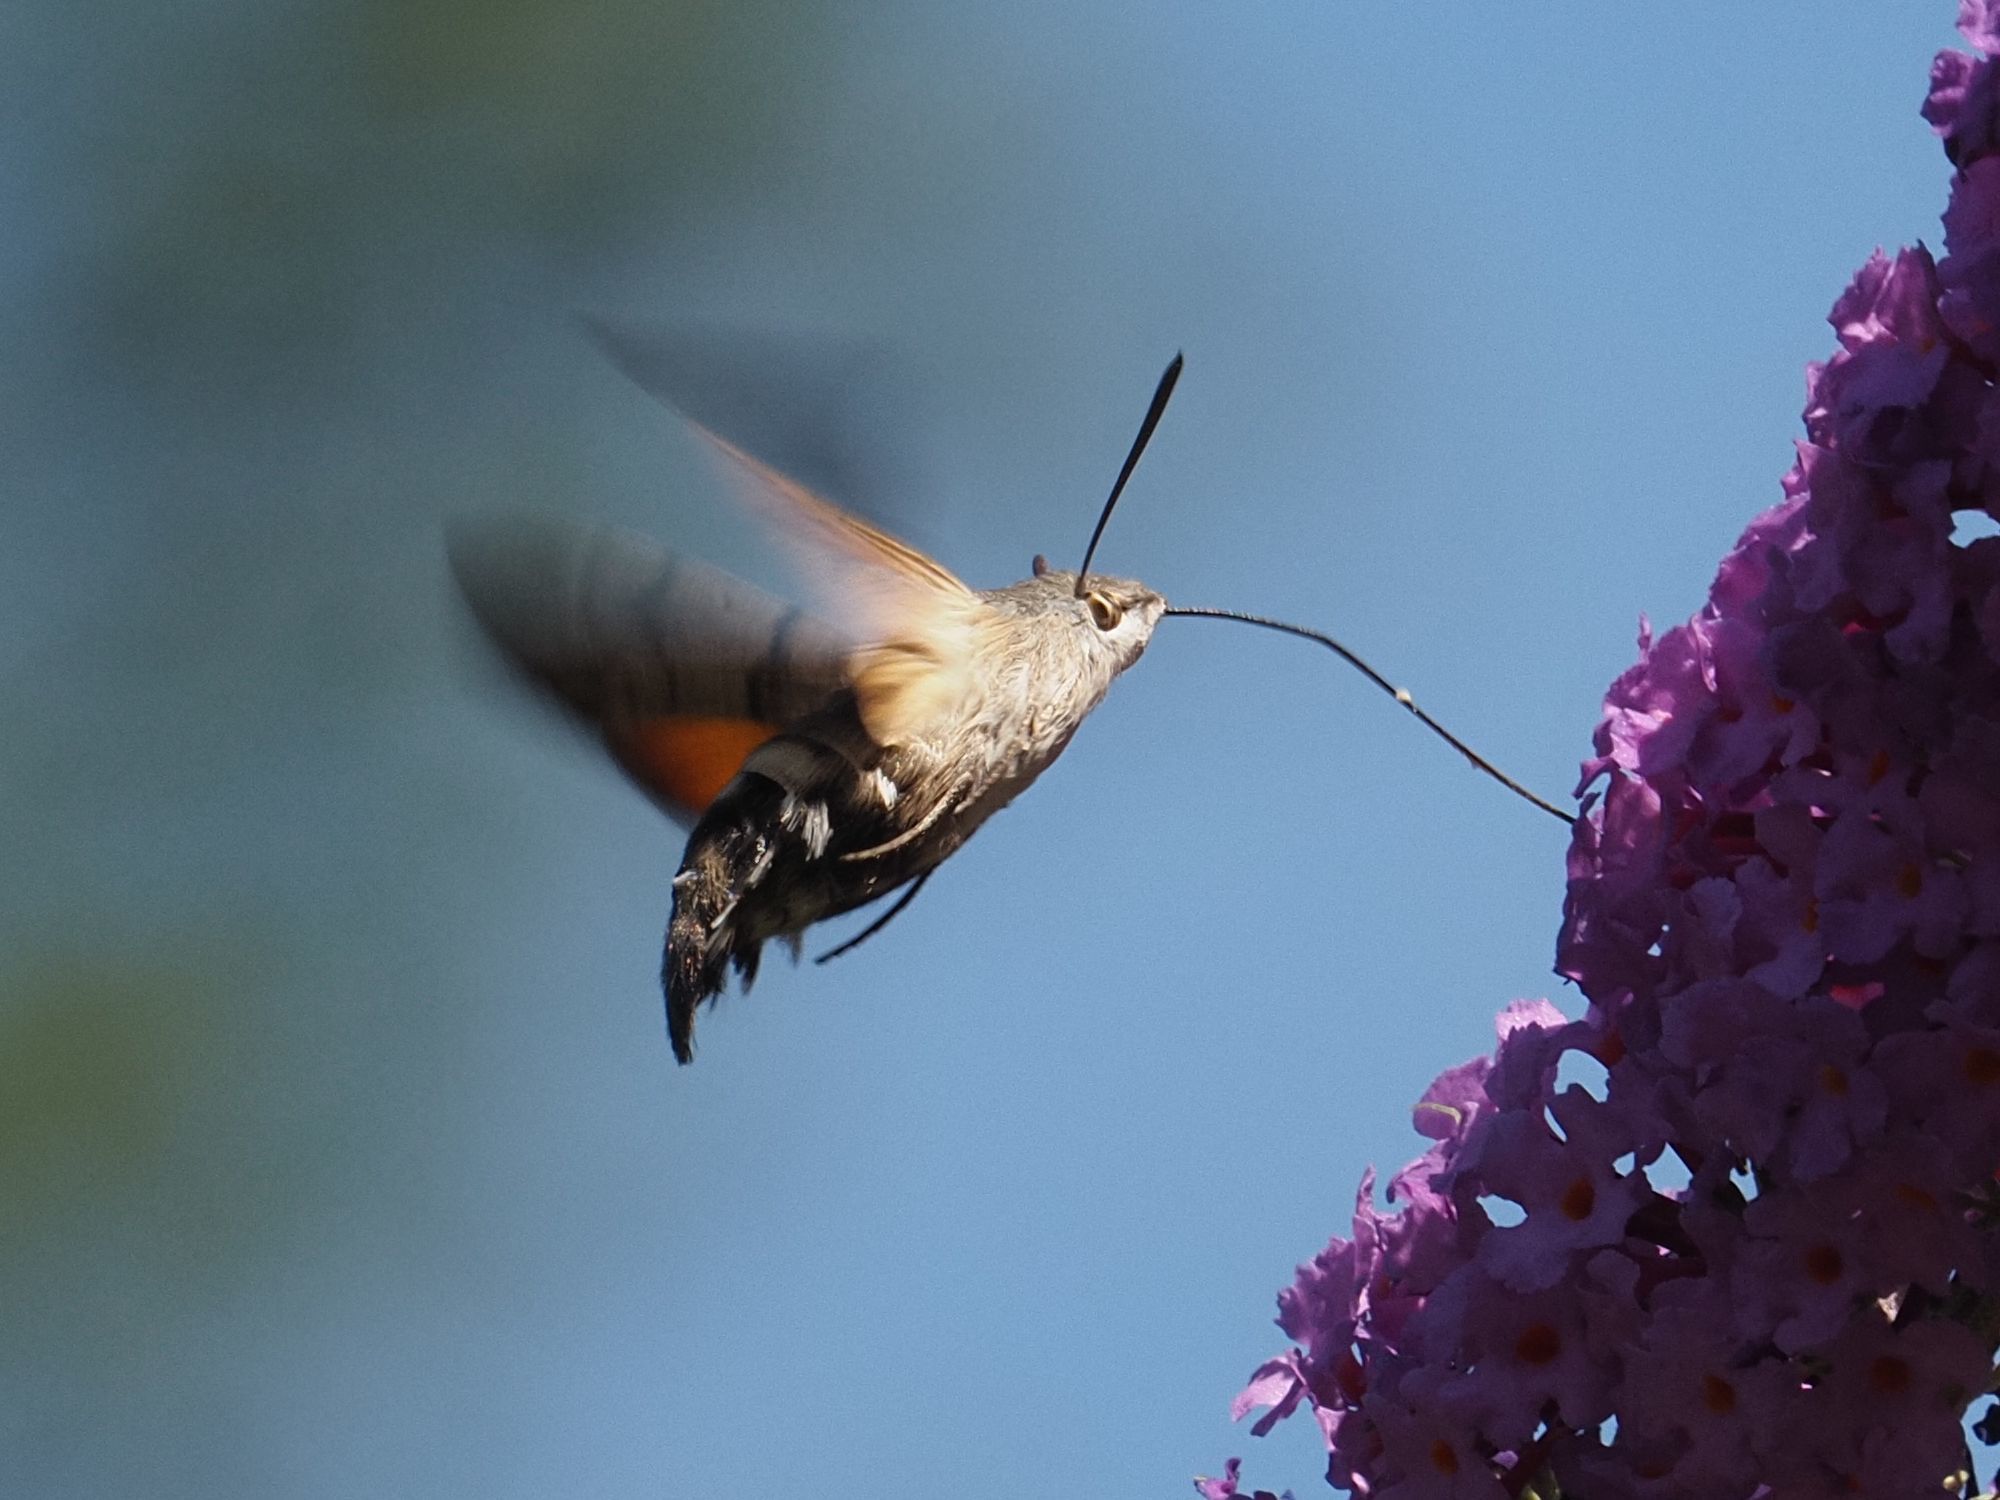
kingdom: Animalia
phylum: Arthropoda
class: Insecta
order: Lepidoptera
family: Sphingidae
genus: Macroglossum
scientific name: Macroglossum stellatarum
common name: Humming-bird hawk-moth
